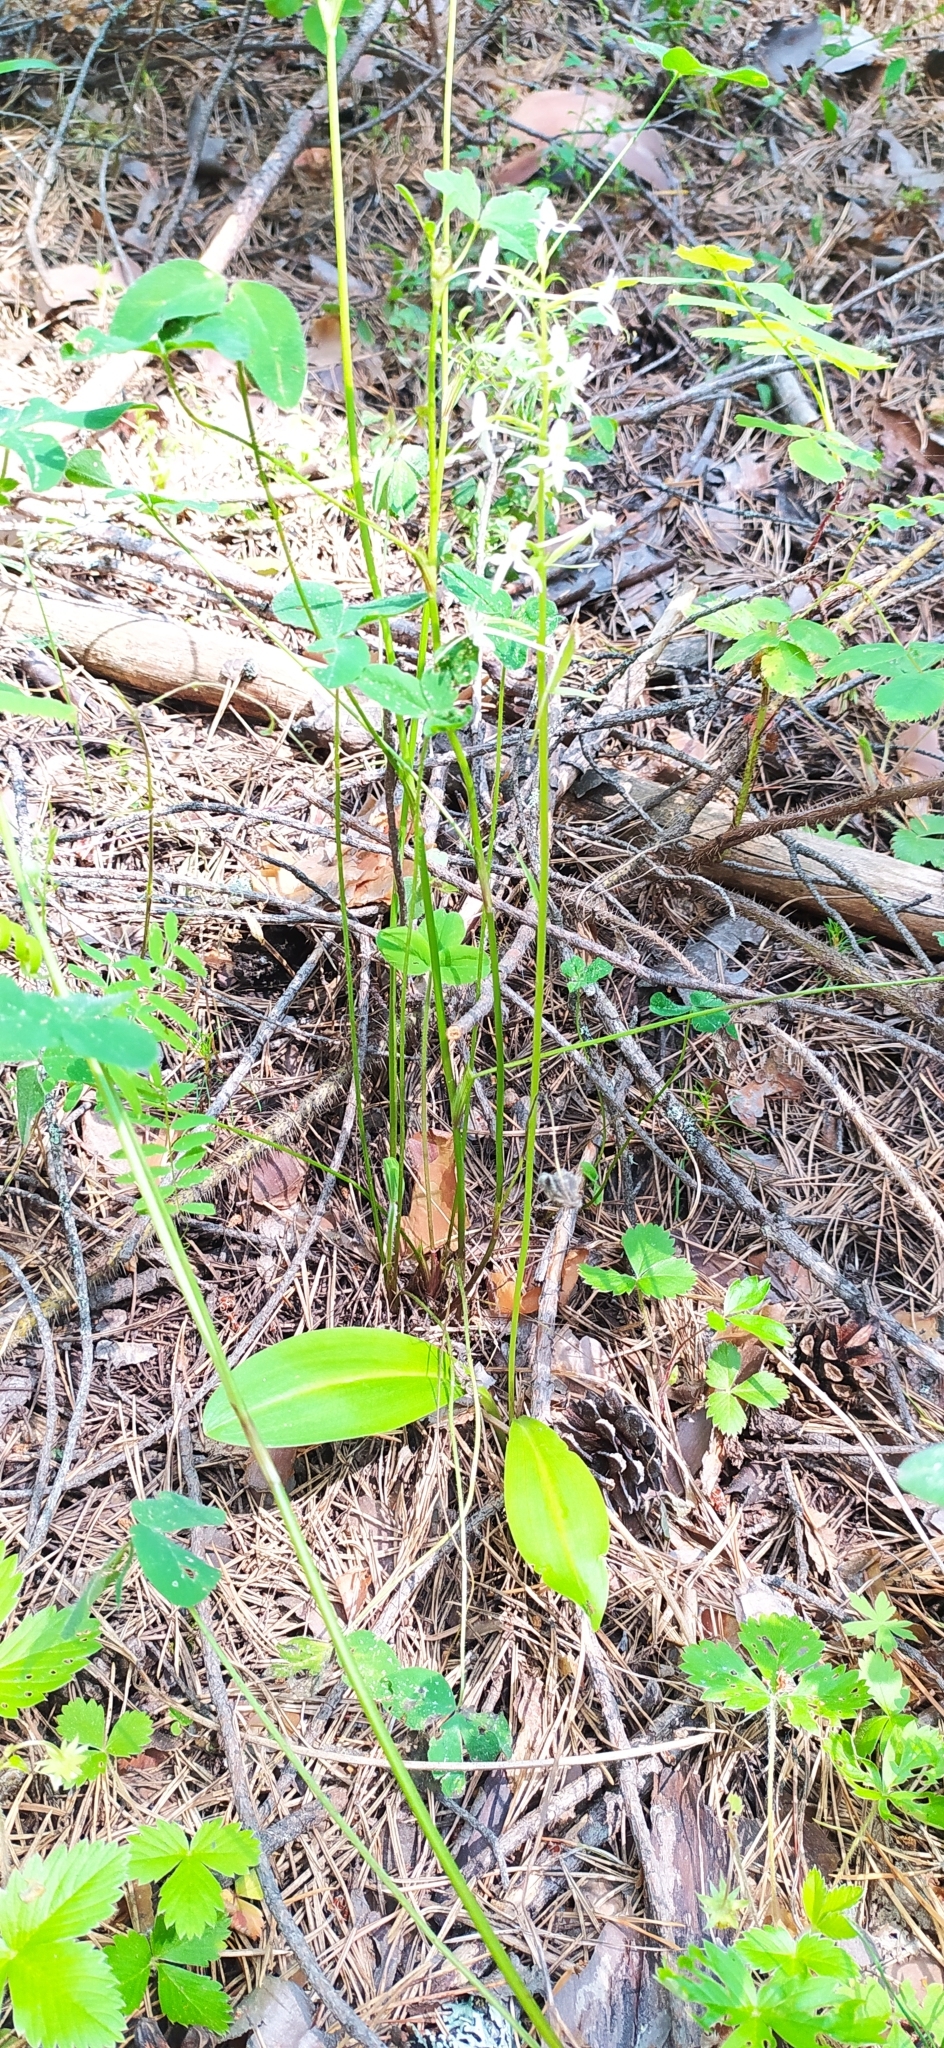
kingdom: Plantae
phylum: Tracheophyta
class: Liliopsida
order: Asparagales
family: Orchidaceae
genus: Platanthera
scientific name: Platanthera bifolia
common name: Lesser butterfly-orchid
